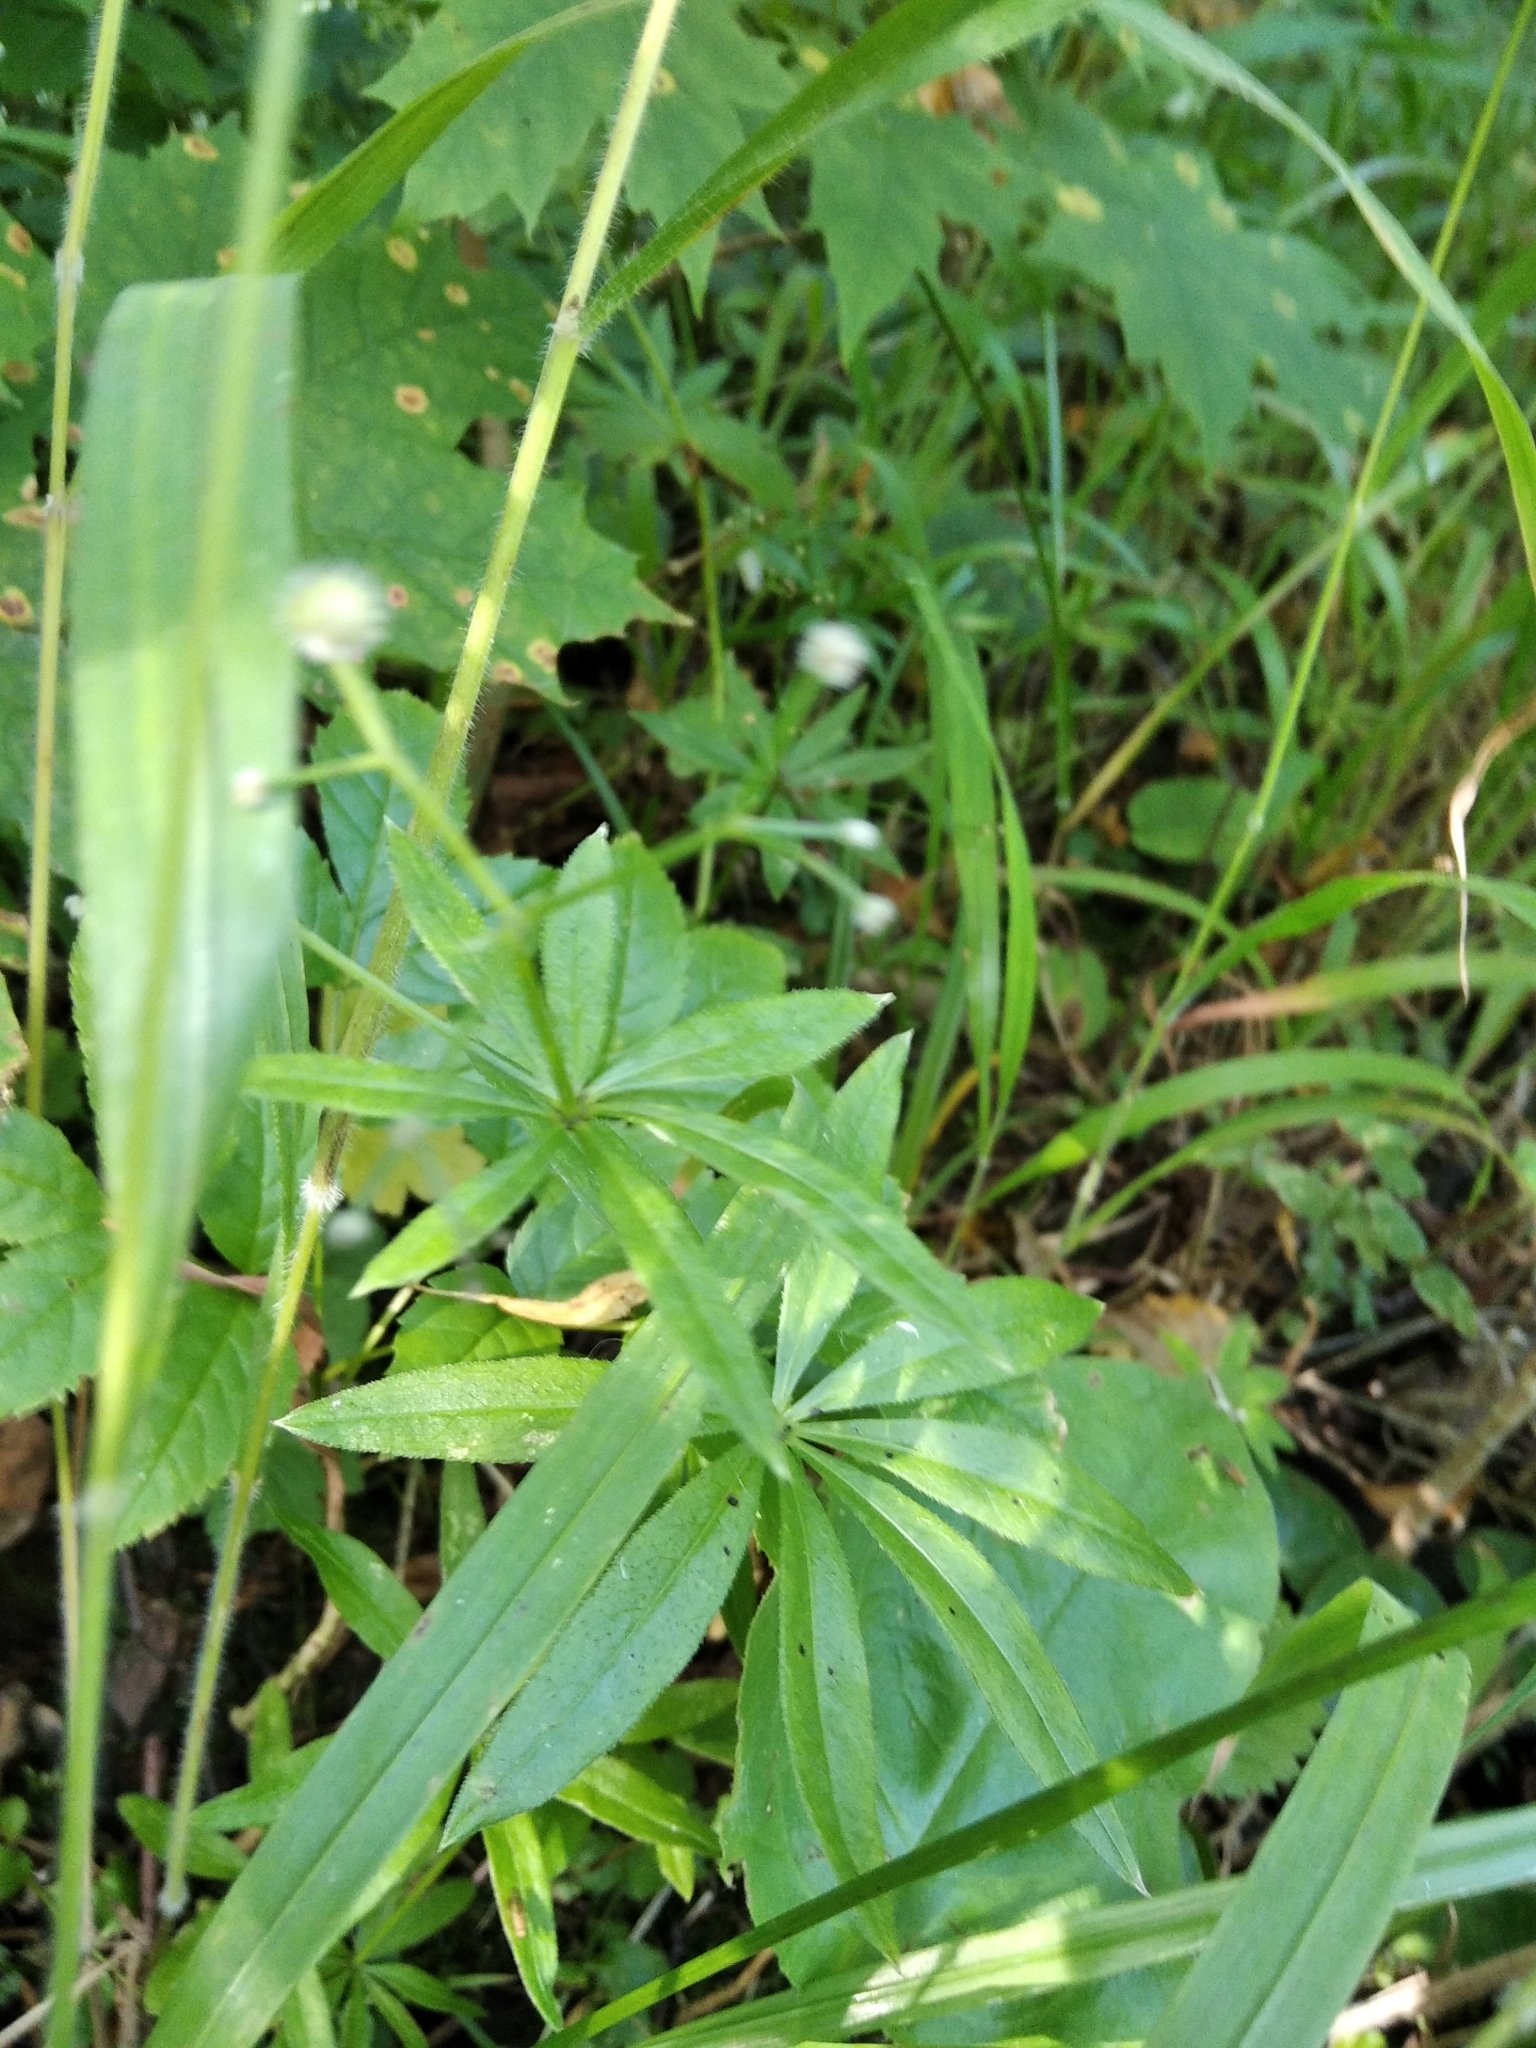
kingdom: Plantae
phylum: Tracheophyta
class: Magnoliopsida
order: Gentianales
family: Rubiaceae
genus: Galium
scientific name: Galium odoratum
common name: Sweet woodruff
